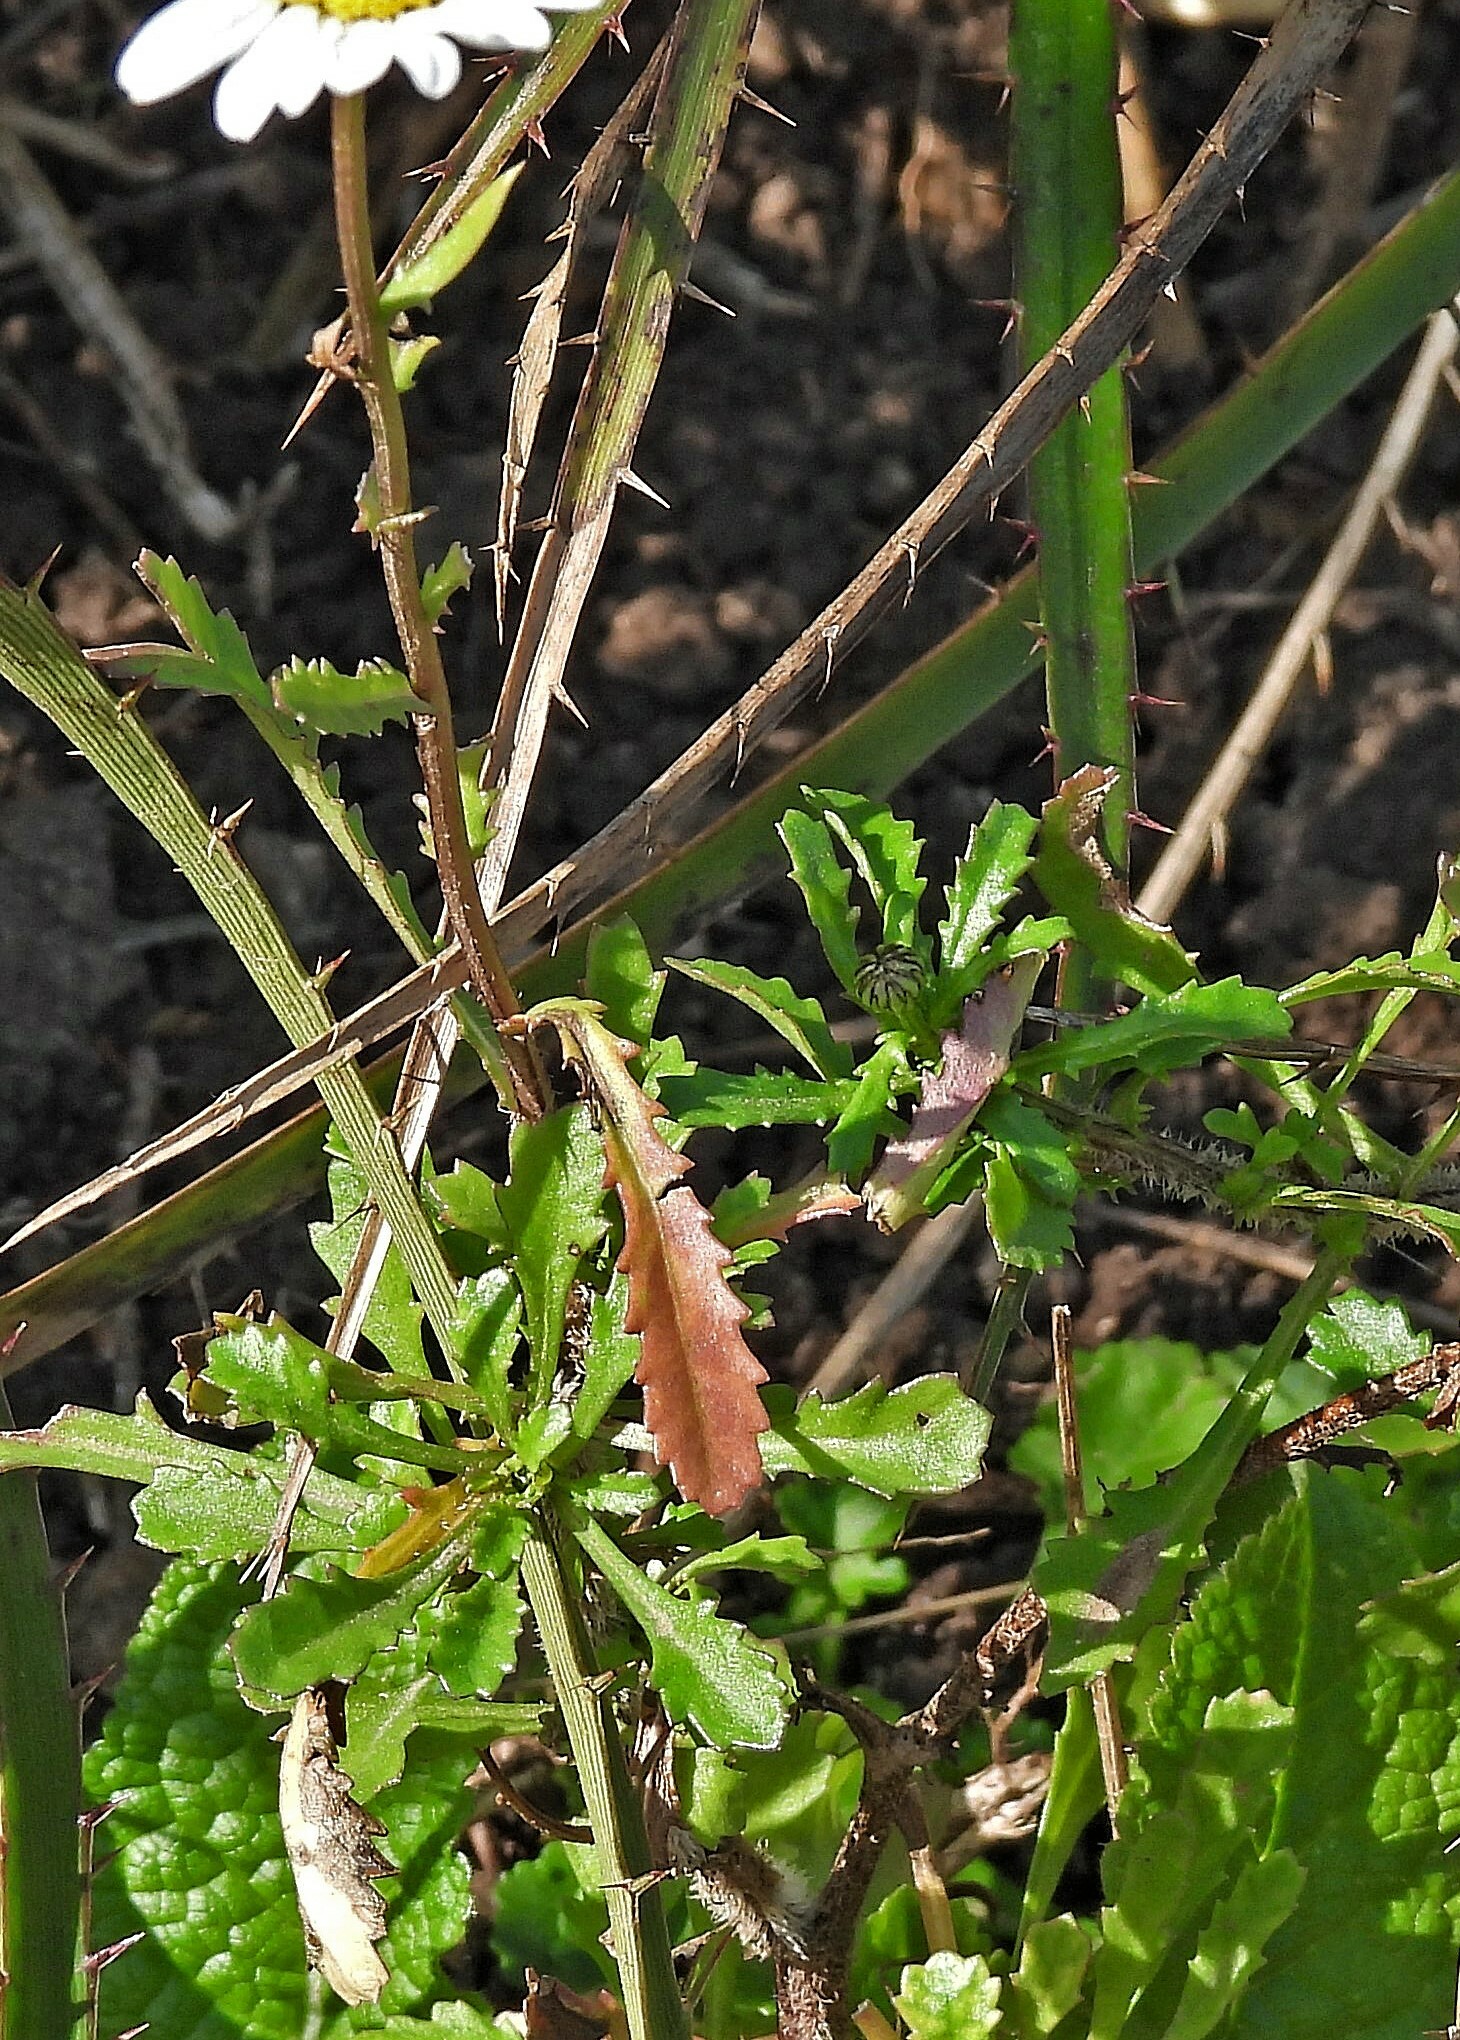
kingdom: Plantae
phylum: Tracheophyta
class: Magnoliopsida
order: Asterales
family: Asteraceae
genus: Leucanthemum
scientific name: Leucanthemum vulgare
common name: Oxeye daisy
